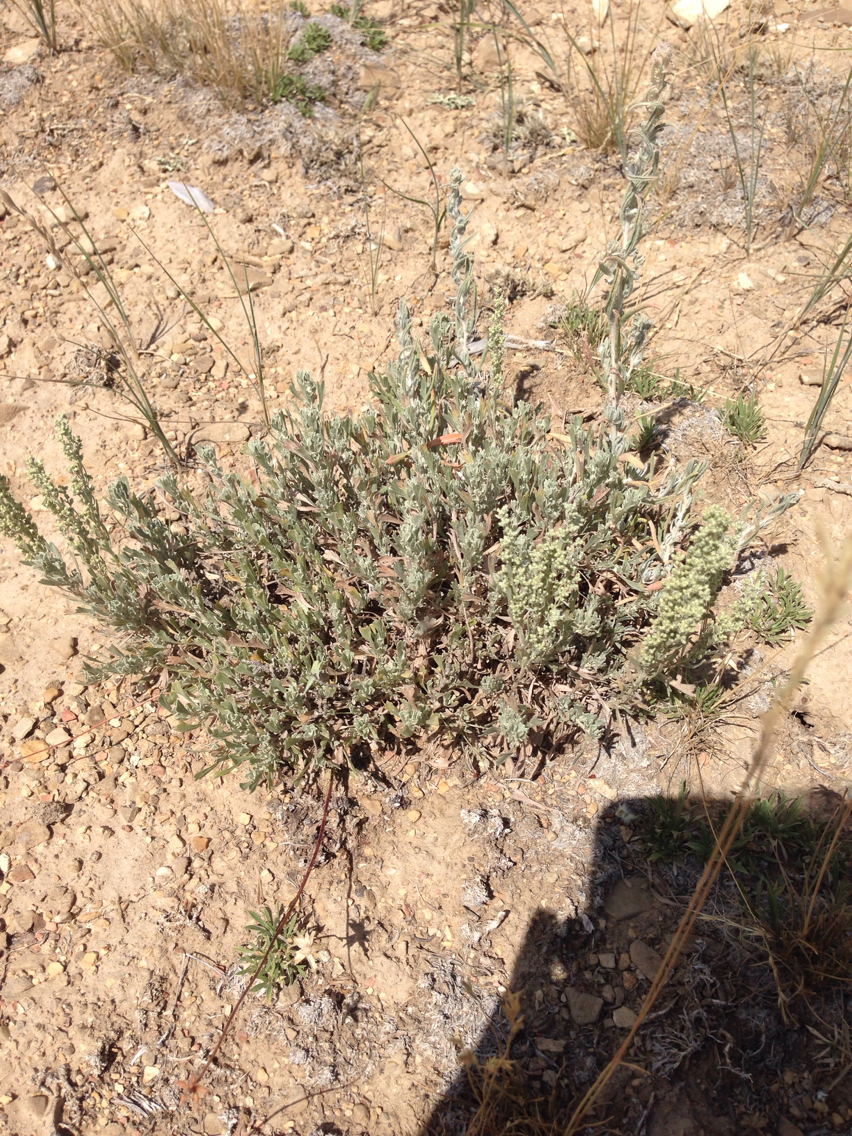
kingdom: Plantae
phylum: Tracheophyta
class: Magnoliopsida
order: Asterales
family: Asteraceae
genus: Artemisia
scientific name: Artemisia arbuscula
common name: Sagebrush
